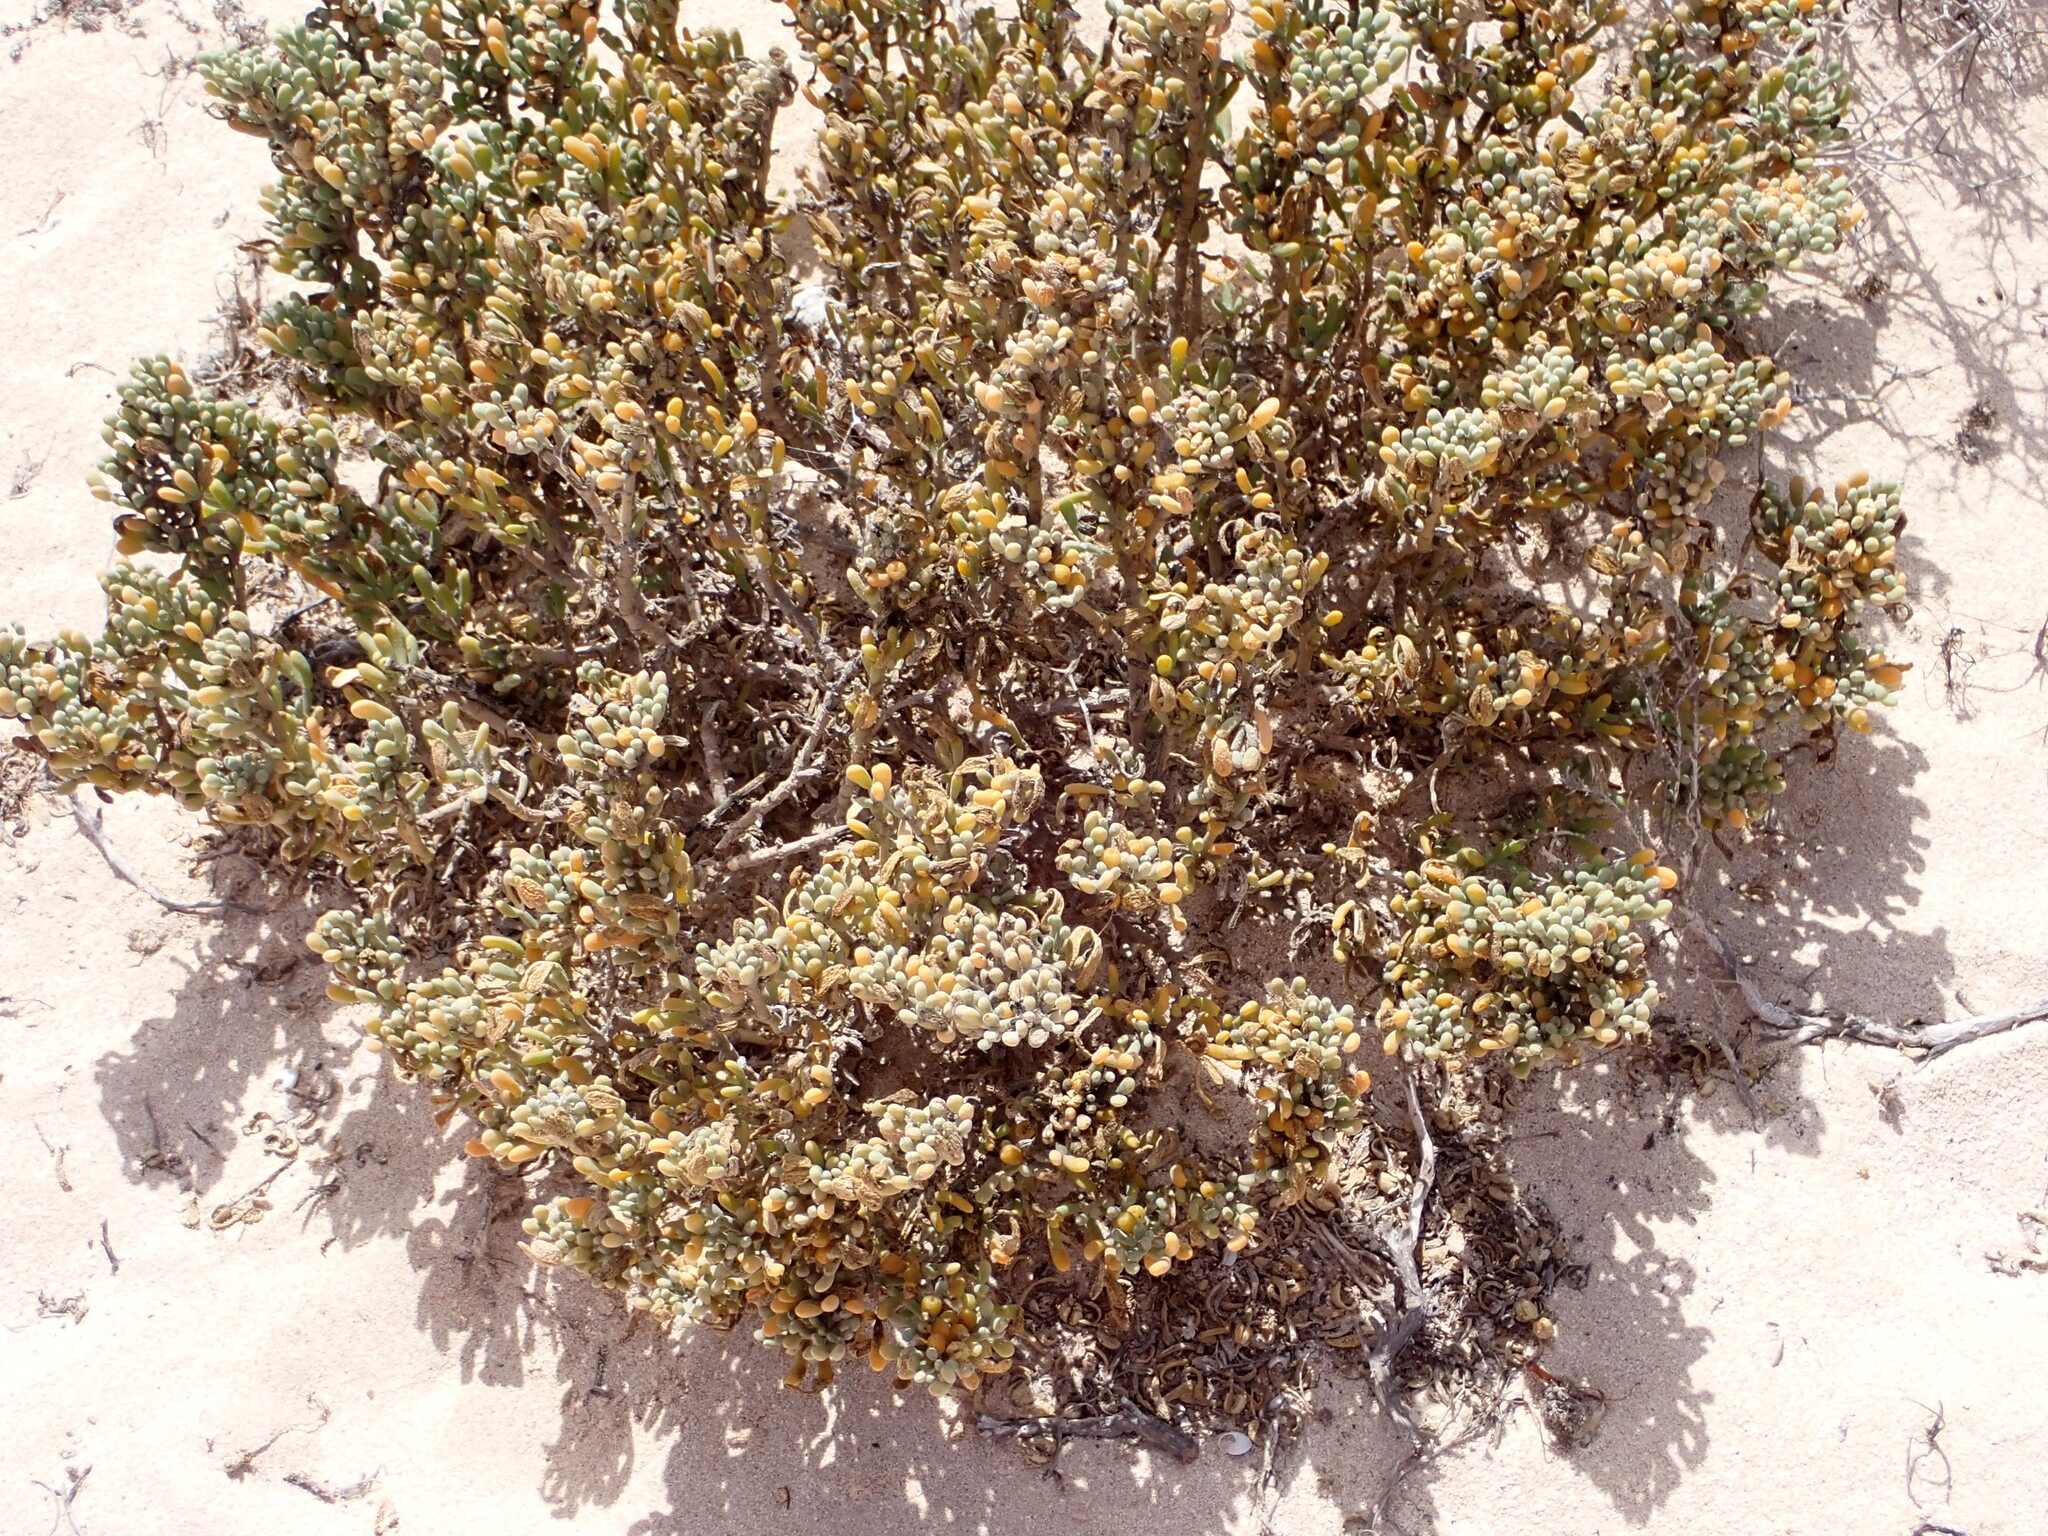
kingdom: Plantae
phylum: Tracheophyta
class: Magnoliopsida
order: Zygophyllales
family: Zygophyllaceae
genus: Tetraena
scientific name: Tetraena fontanesii
